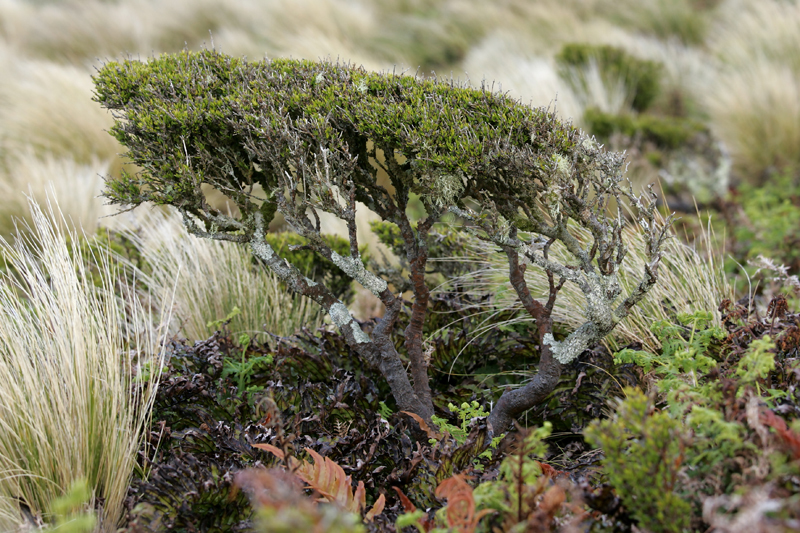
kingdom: Plantae
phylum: Tracheophyta
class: Magnoliopsida
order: Gentianales
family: Rubiaceae
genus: Coprosma
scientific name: Coprosma rugosa
